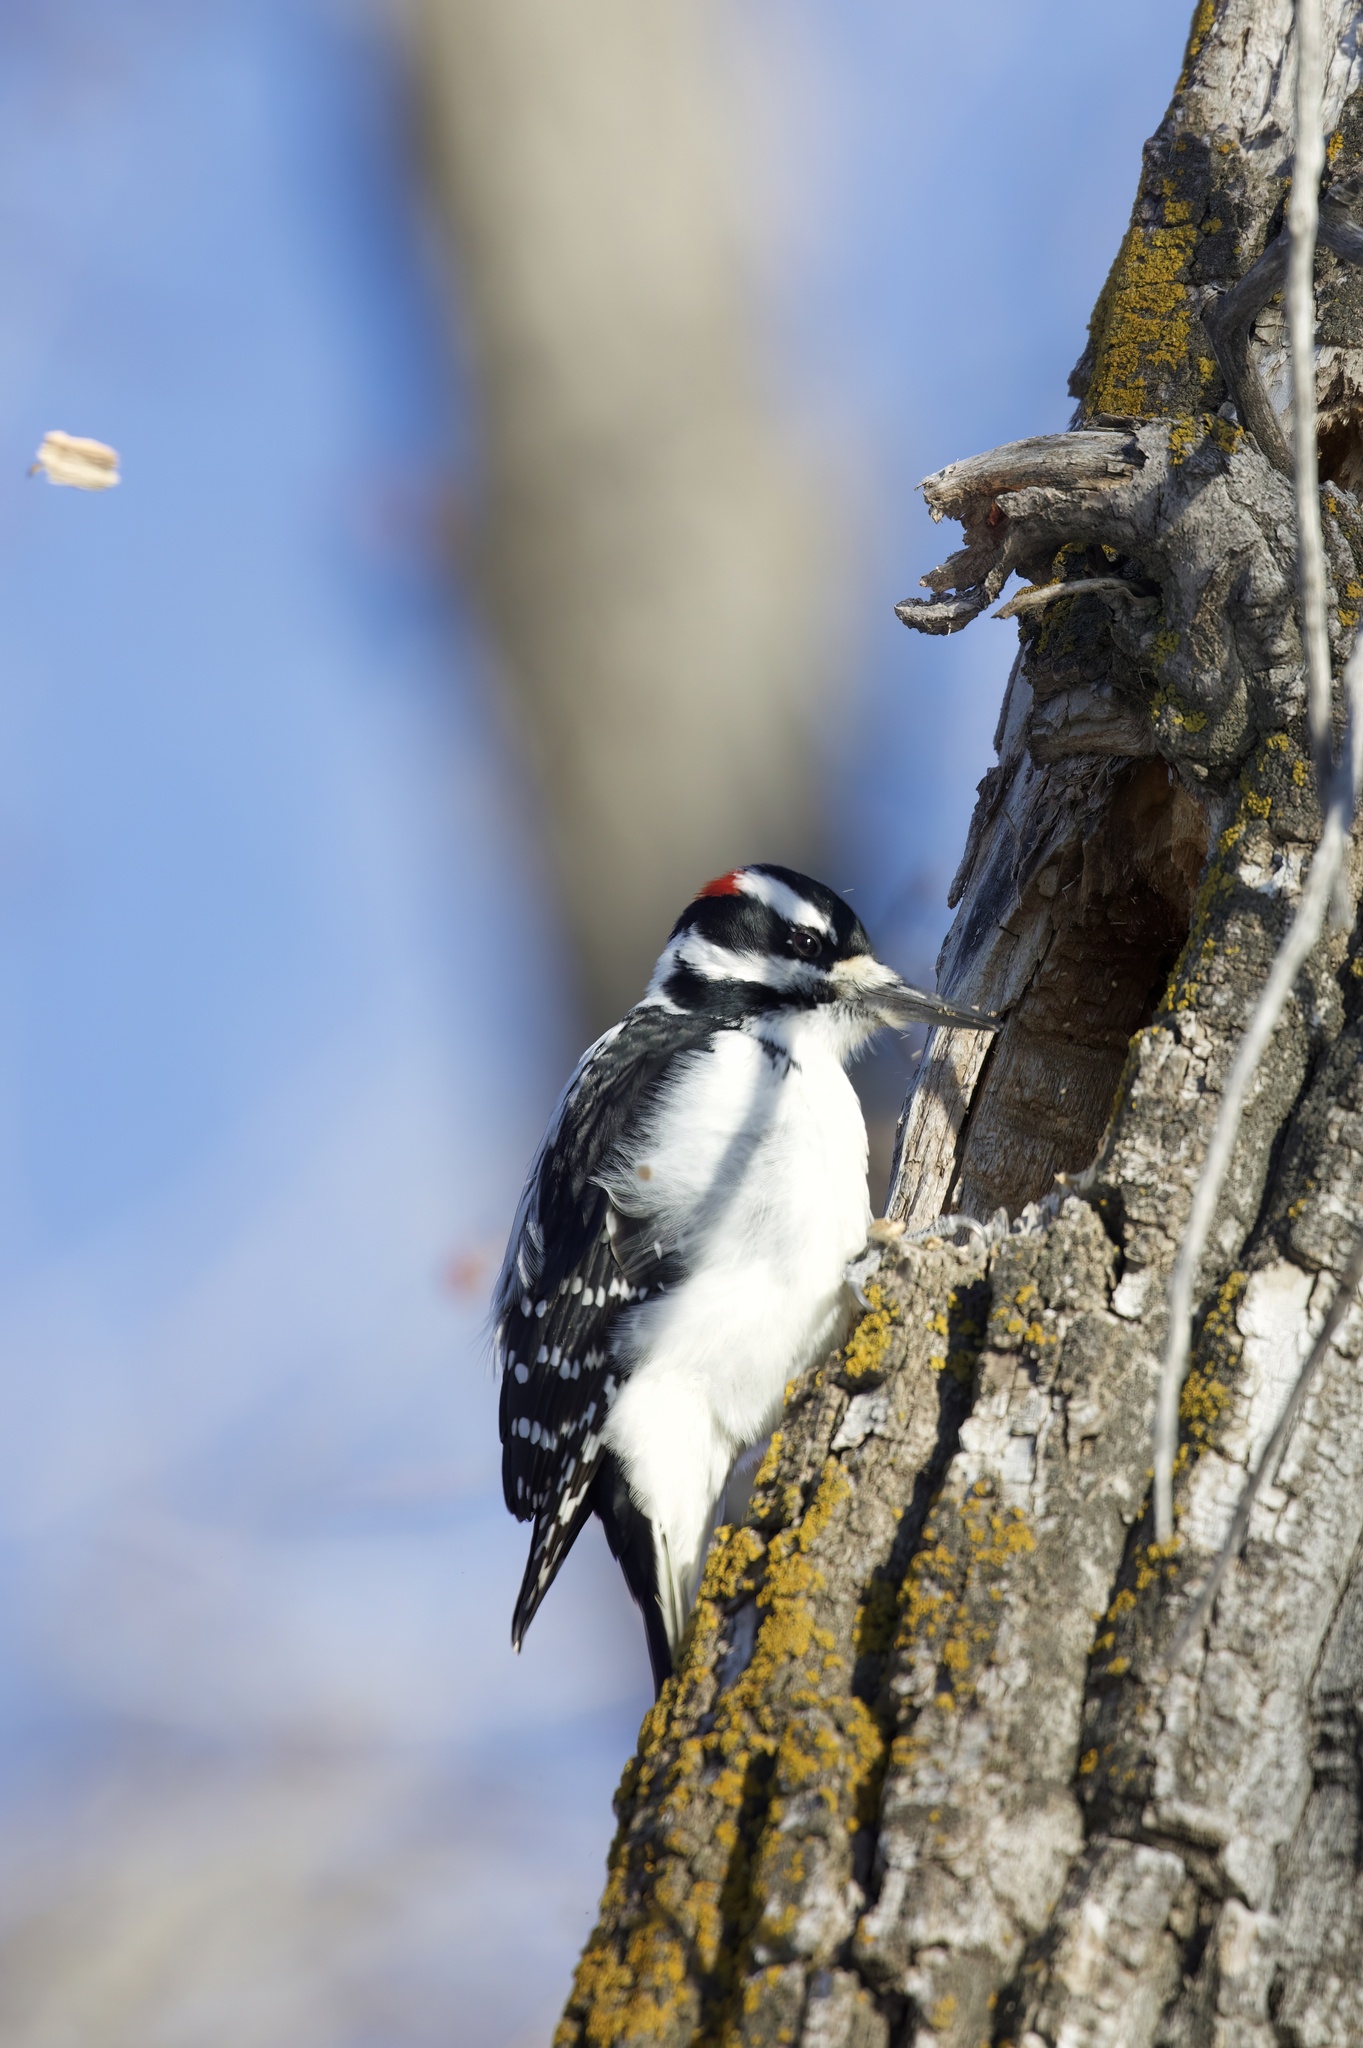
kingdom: Animalia
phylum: Chordata
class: Aves
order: Piciformes
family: Picidae
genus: Leuconotopicus
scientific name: Leuconotopicus villosus
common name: Hairy woodpecker
